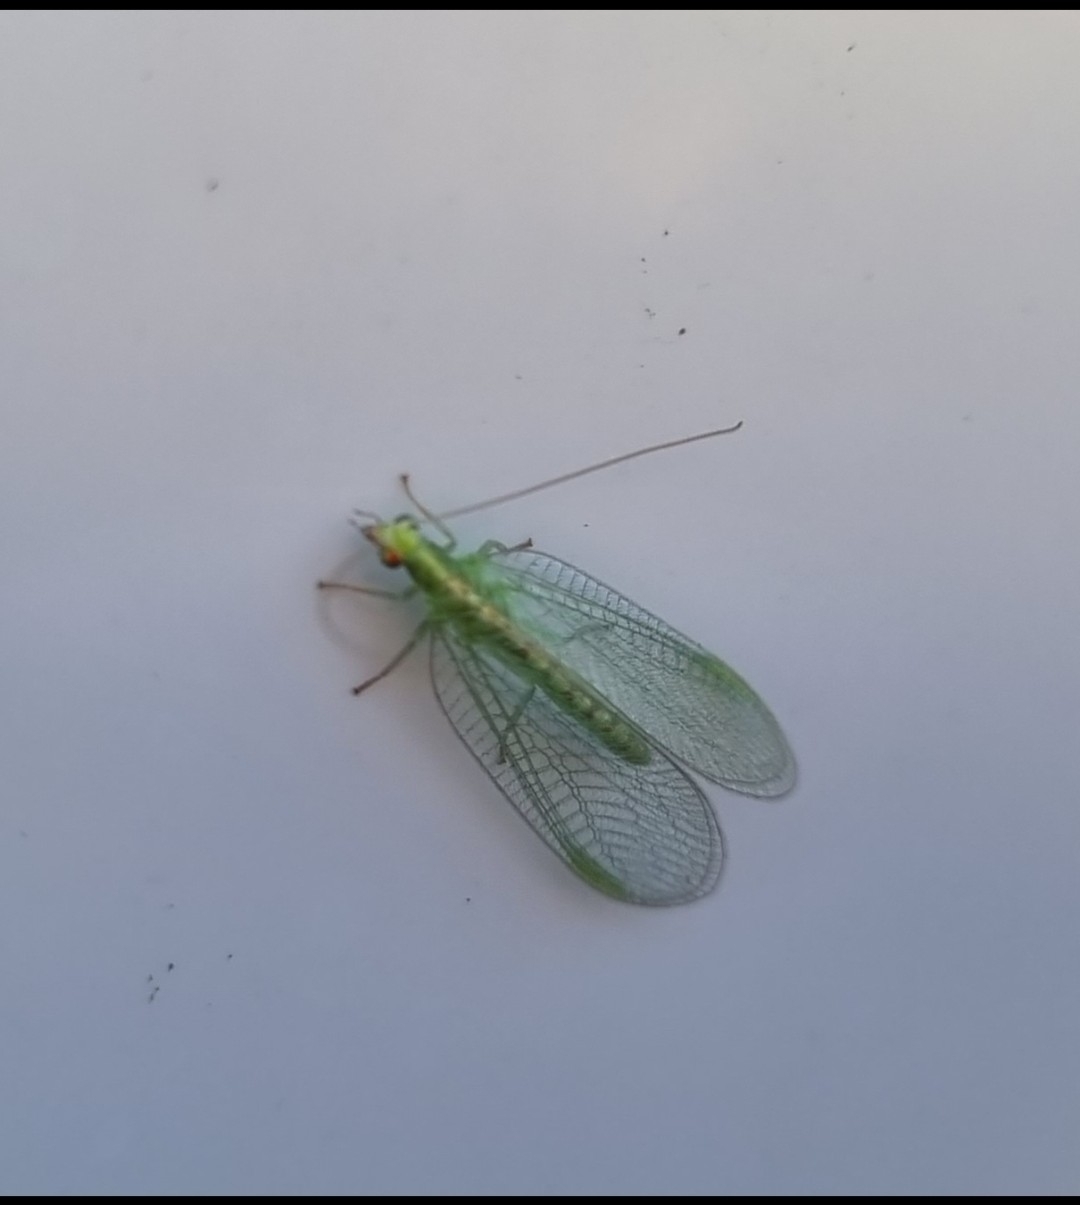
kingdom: Animalia
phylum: Arthropoda
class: Insecta
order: Neuroptera
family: Chrysopidae
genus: Chrysoperla
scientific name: Chrysoperla
